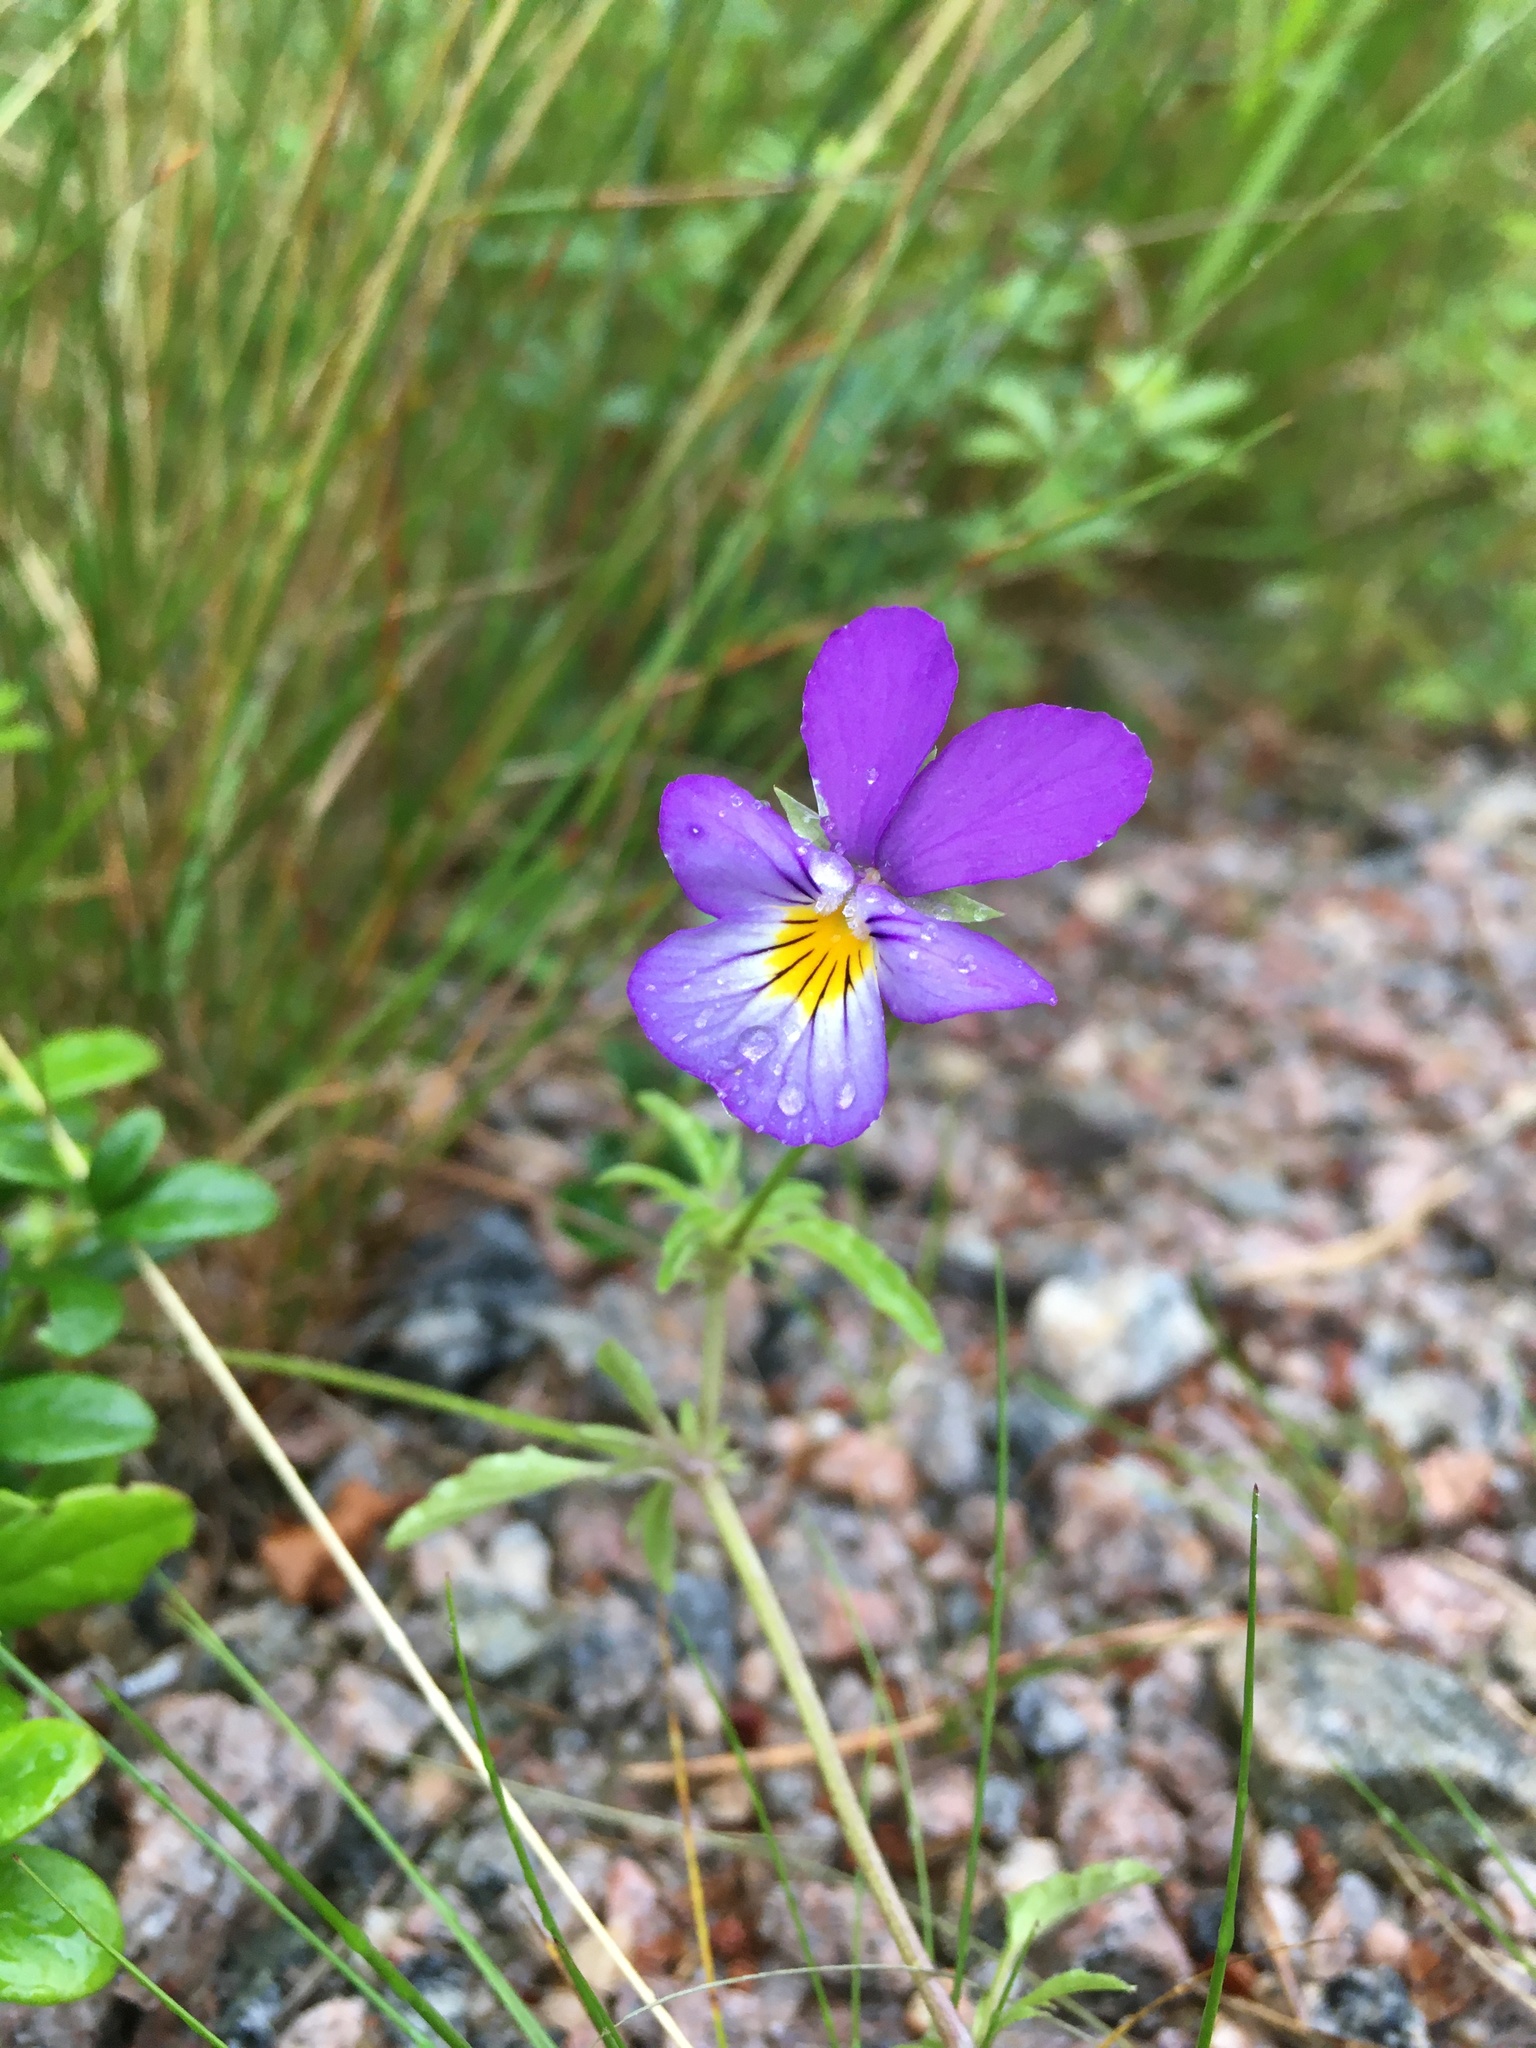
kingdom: Plantae
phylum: Tracheophyta
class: Magnoliopsida
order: Malpighiales
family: Violaceae
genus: Viola
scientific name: Viola tricolor
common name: Pansy
